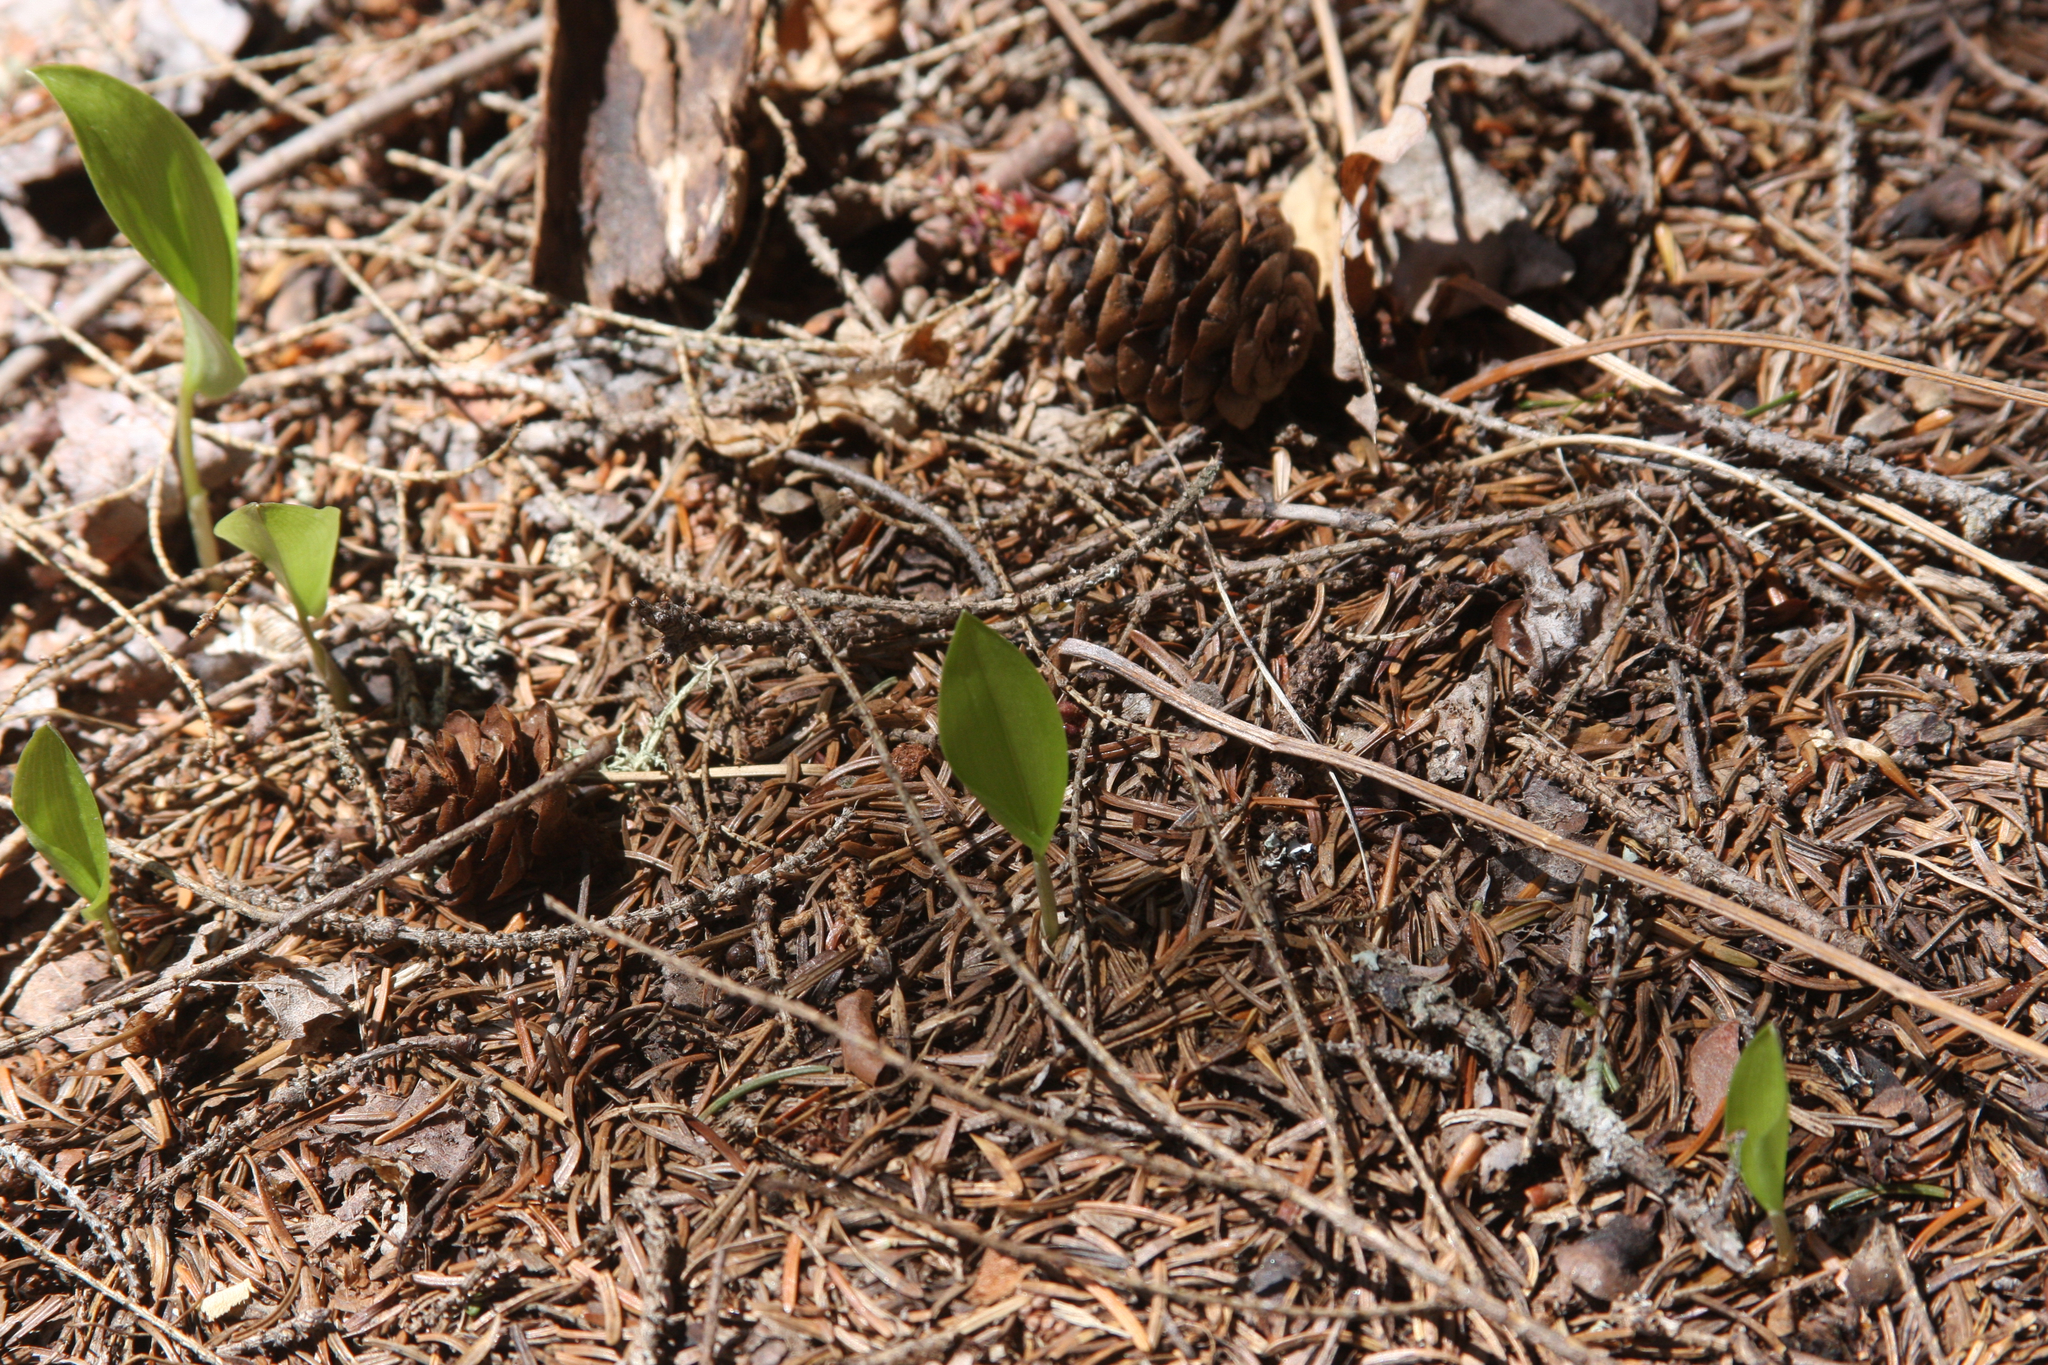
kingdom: Plantae
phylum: Tracheophyta
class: Liliopsida
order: Asparagales
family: Asparagaceae
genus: Maianthemum
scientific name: Maianthemum canadense
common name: False lily-of-the-valley
